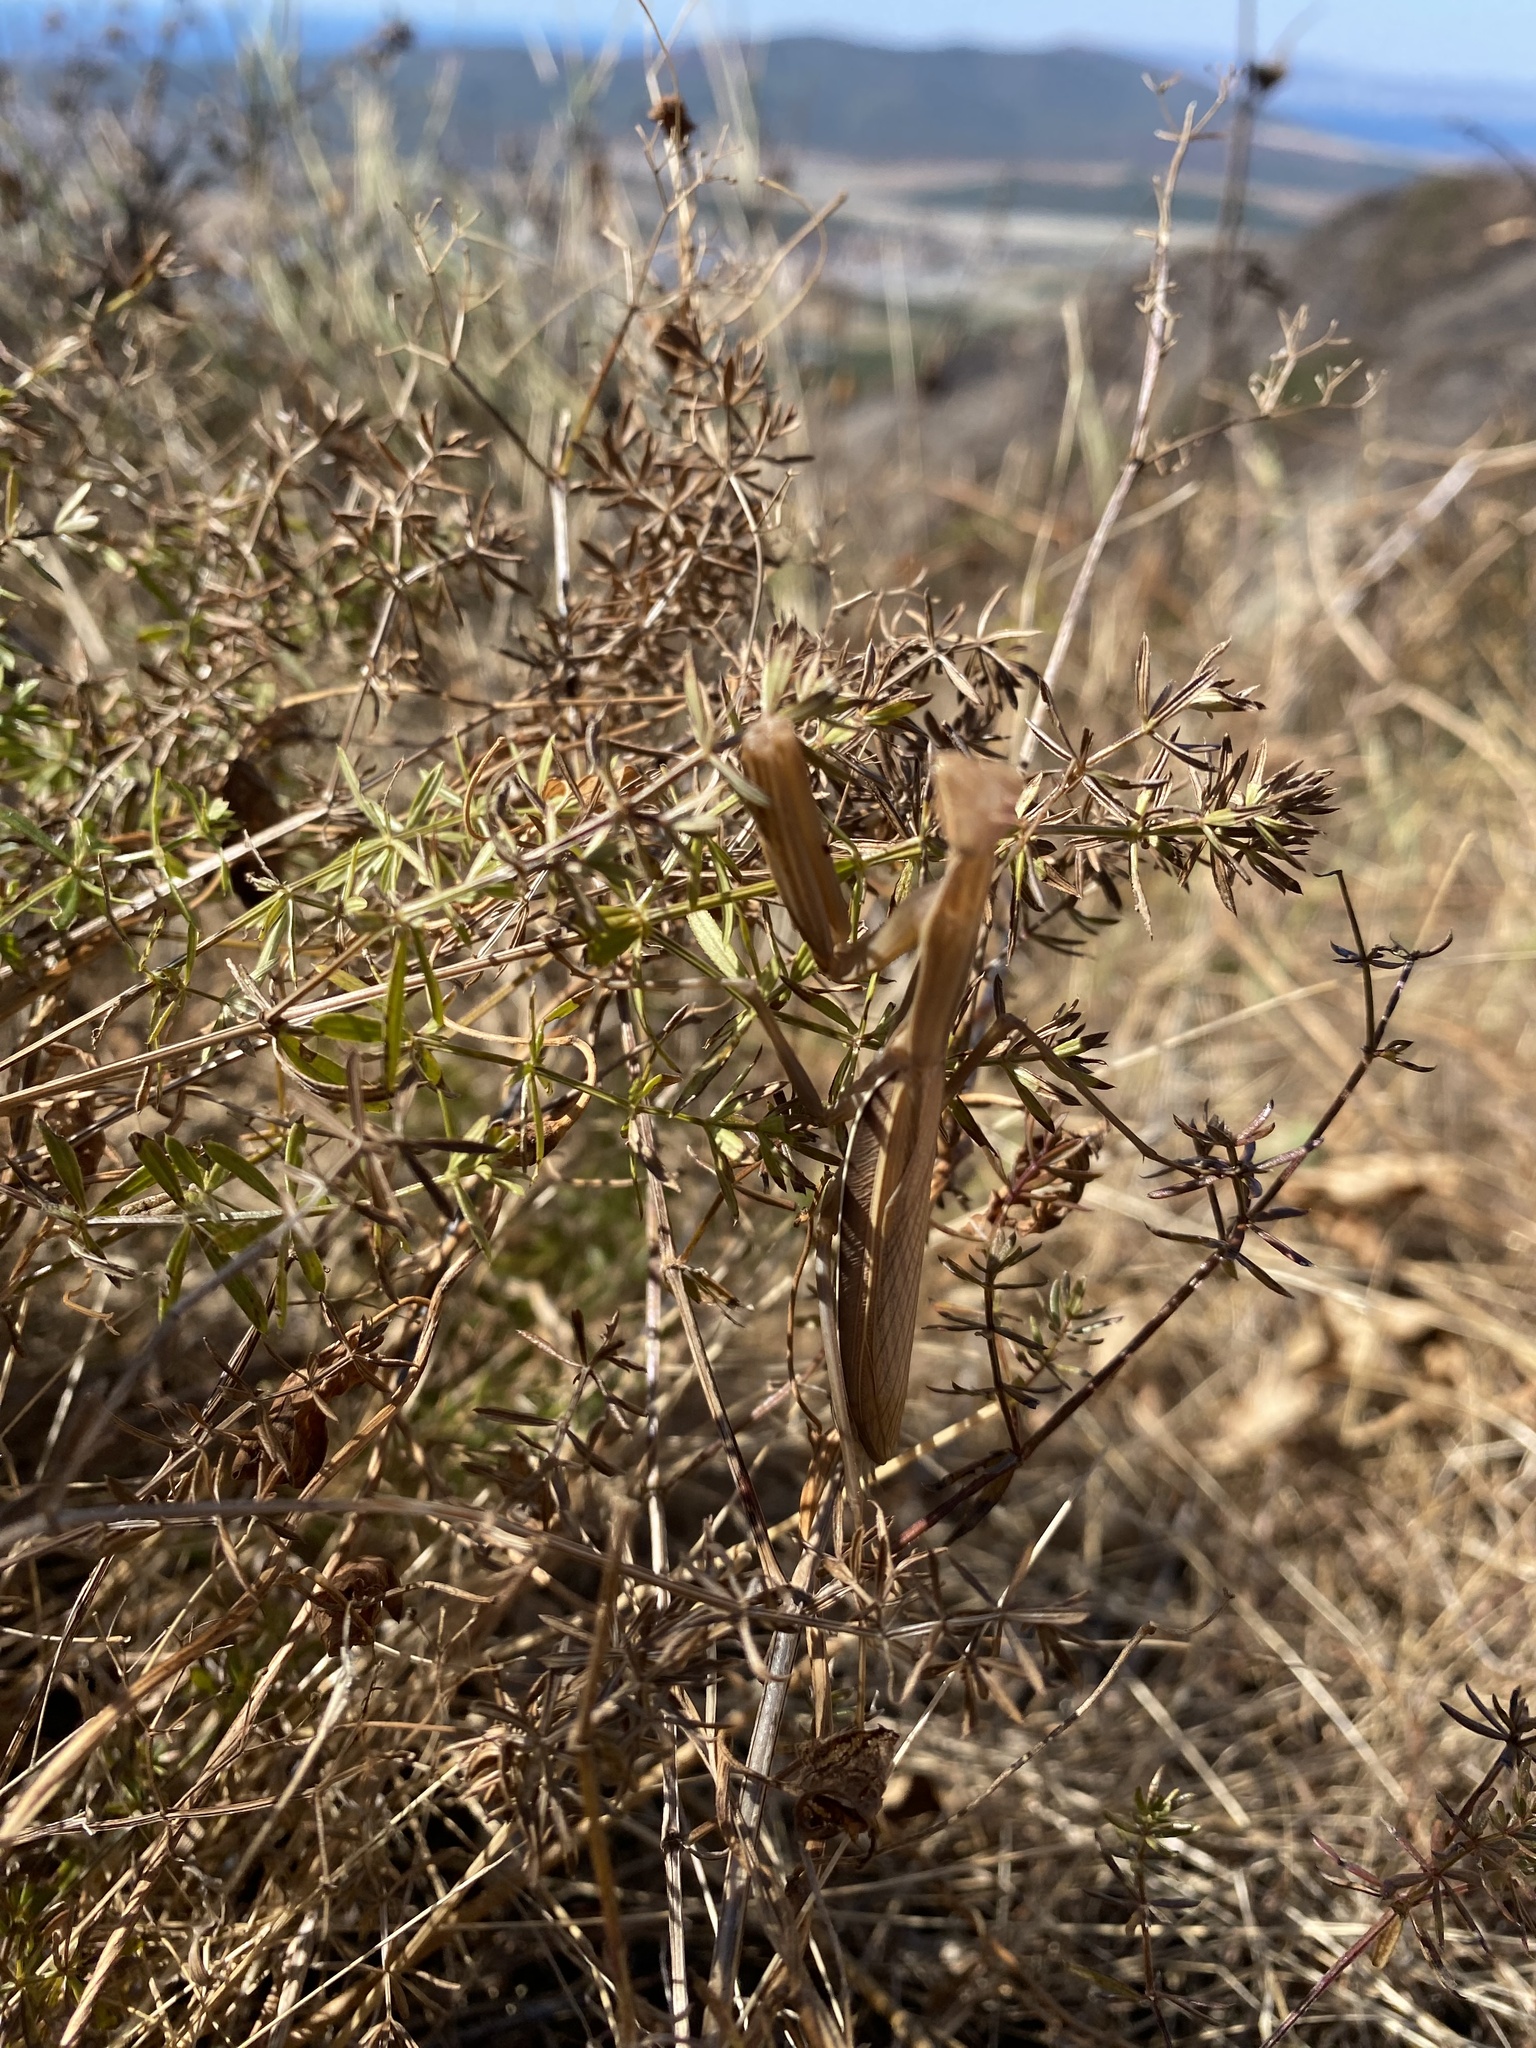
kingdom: Animalia
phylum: Arthropoda
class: Insecta
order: Mantodea
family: Mantidae
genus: Mantis
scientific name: Mantis religiosa
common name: Praying mantis
